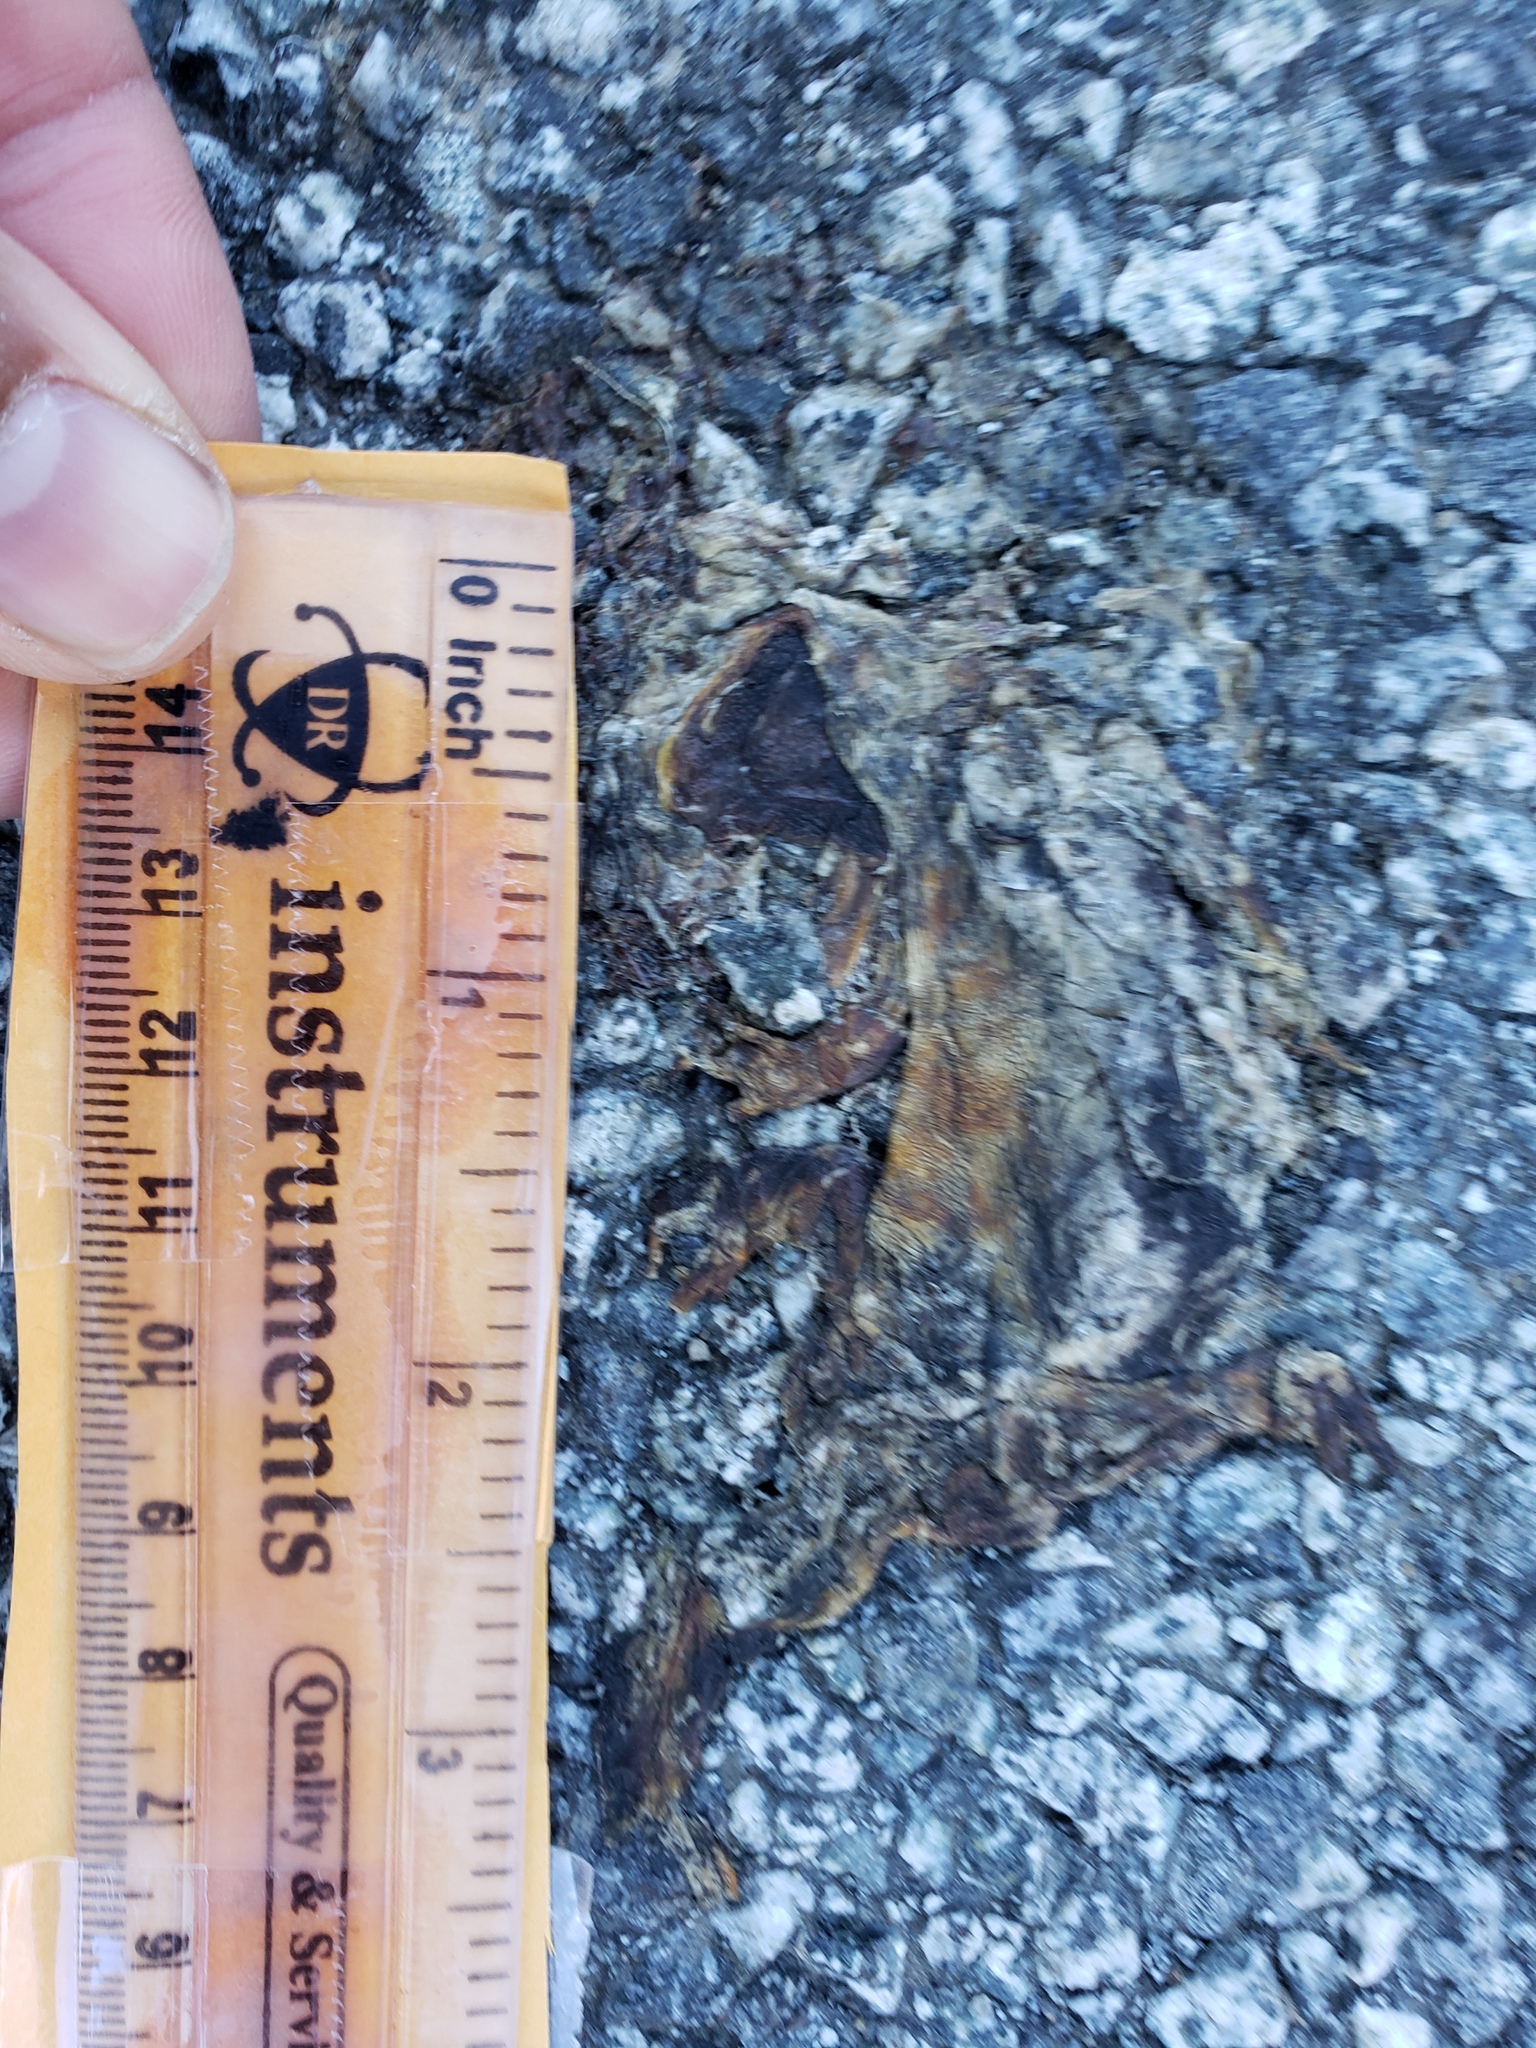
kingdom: Animalia
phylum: Chordata
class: Amphibia
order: Caudata
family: Salamandridae
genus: Taricha
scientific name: Taricha
